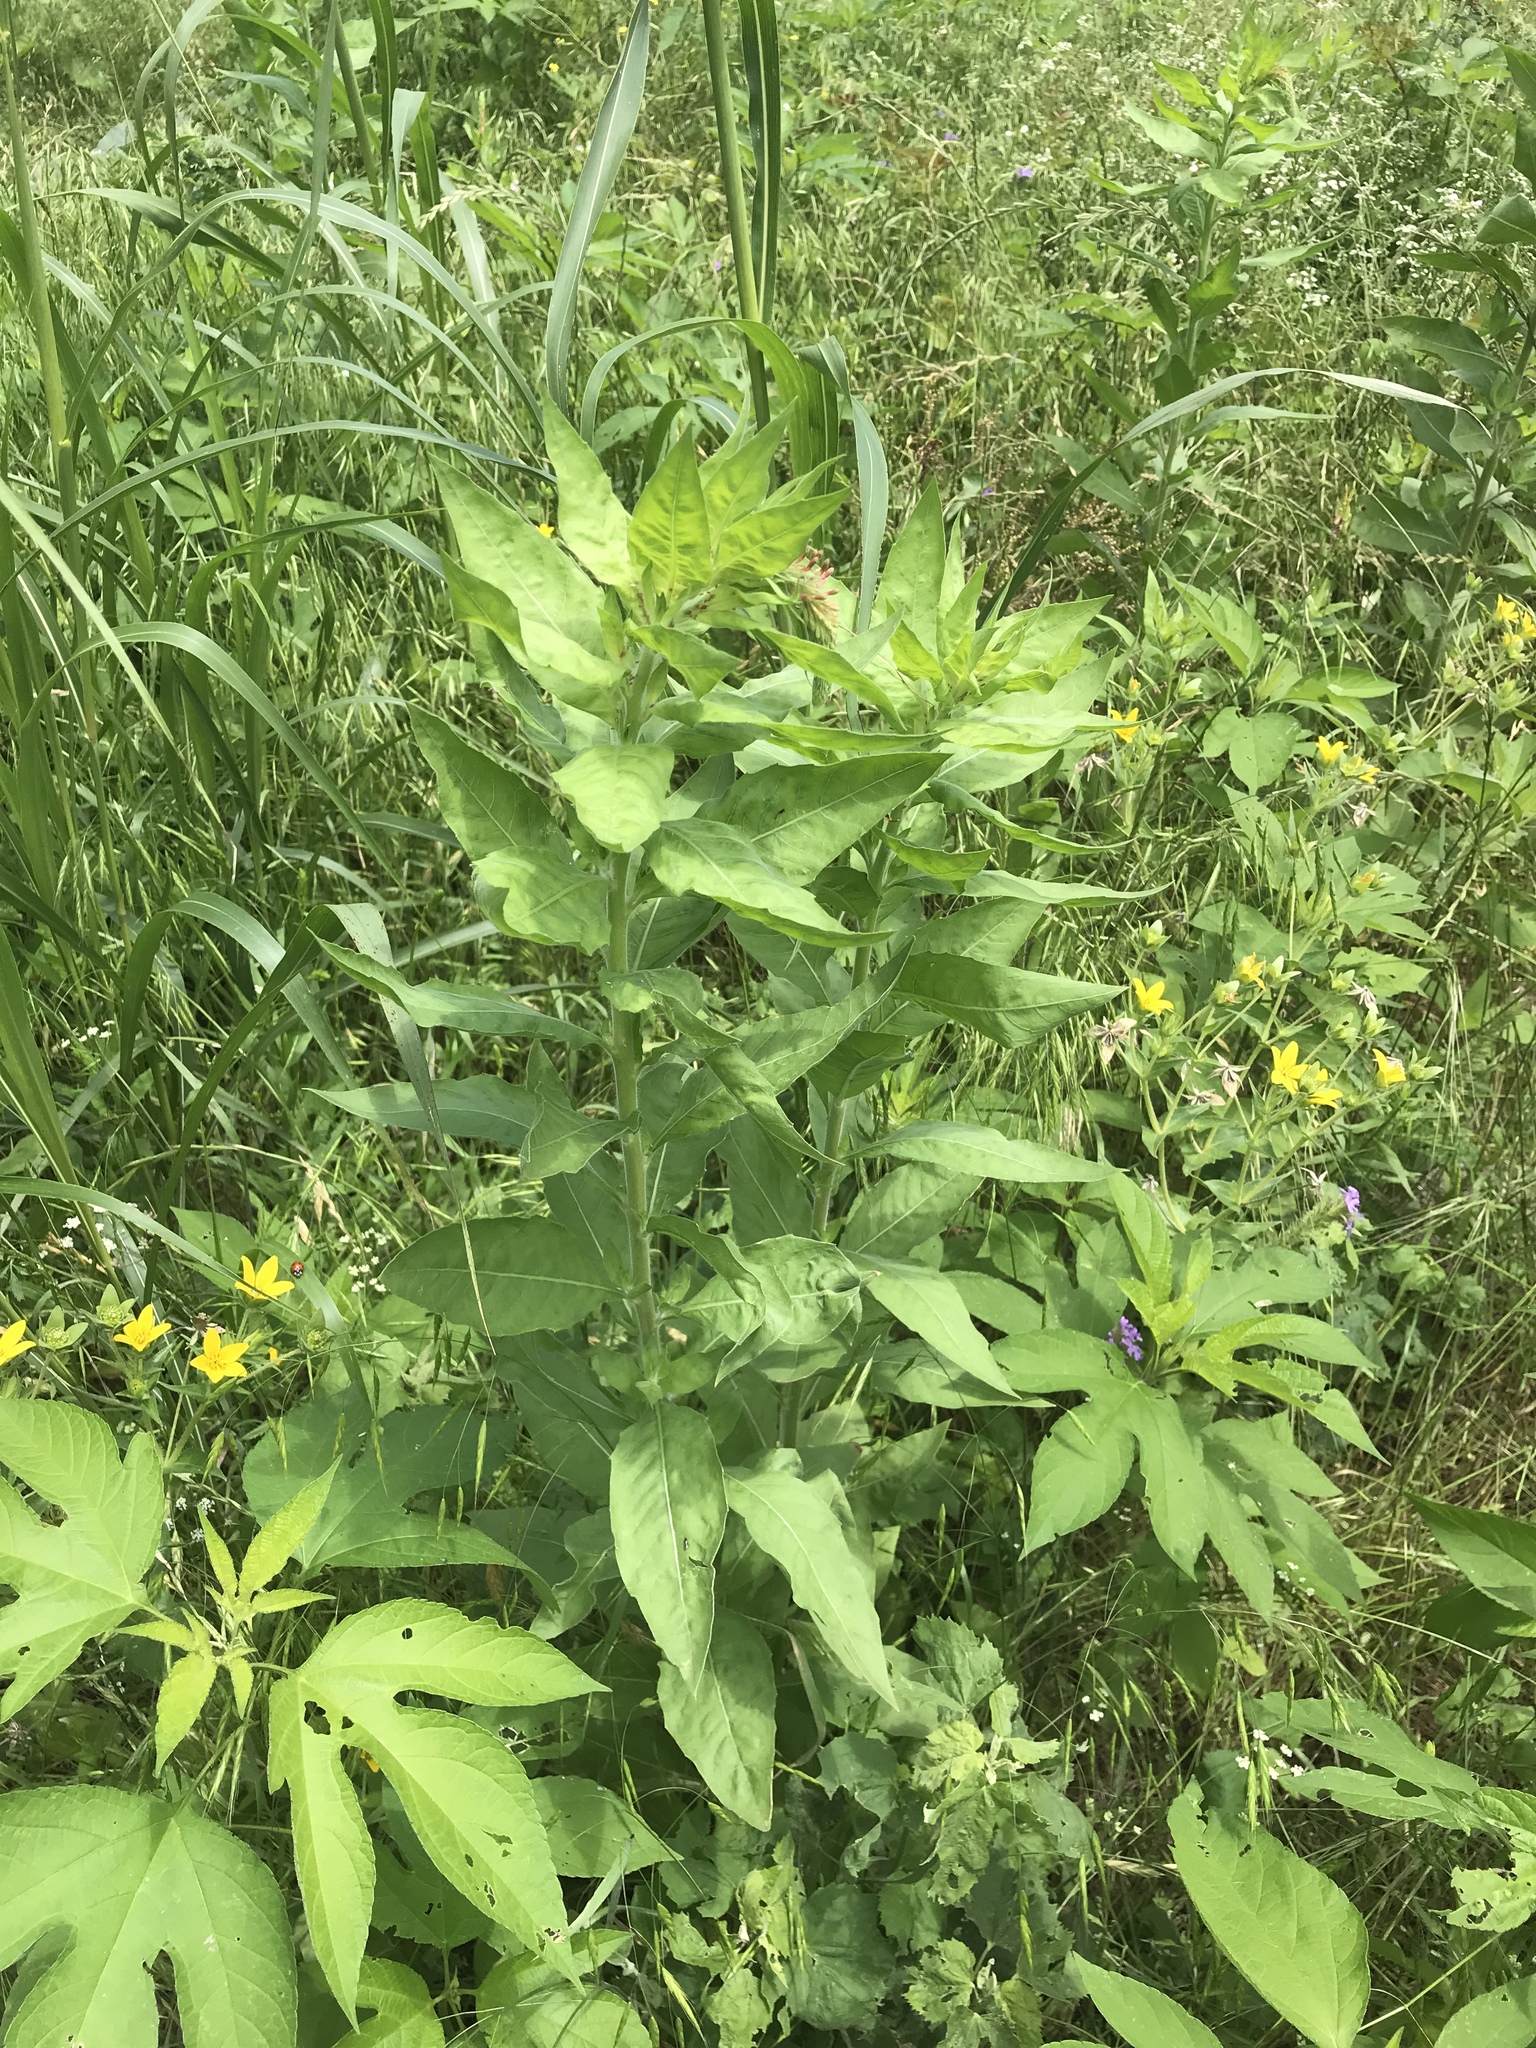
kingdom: Plantae
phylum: Tracheophyta
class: Magnoliopsida
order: Myrtales
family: Onagraceae
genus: Oenothera
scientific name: Oenothera curtiflora
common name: Velvetweed
